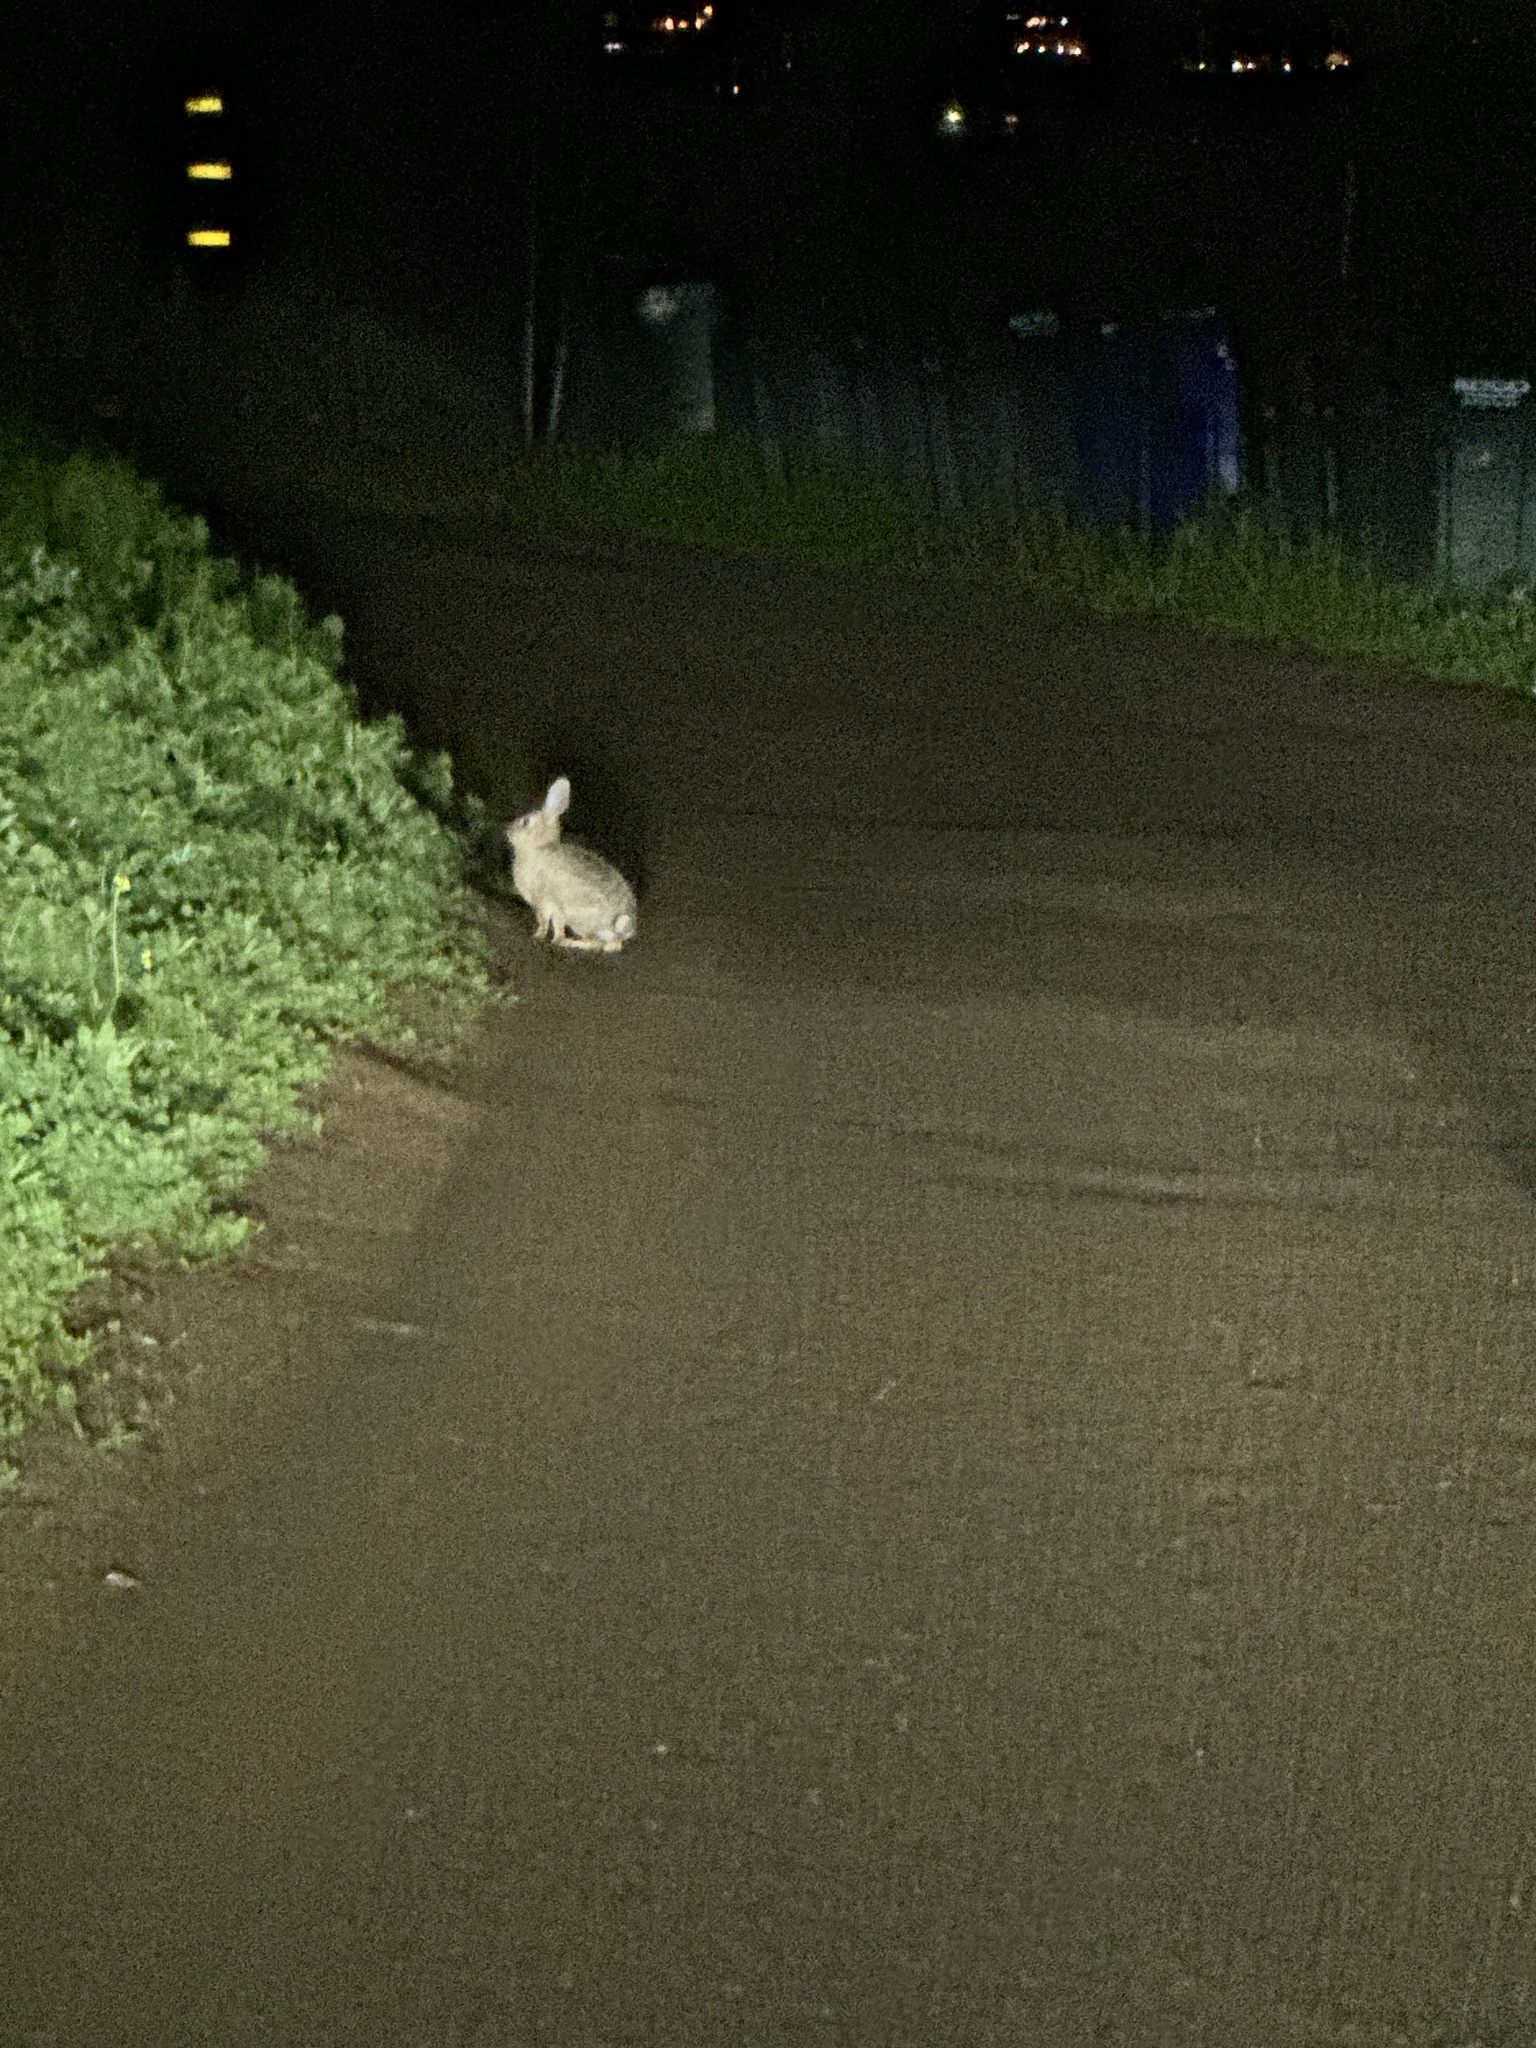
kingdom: Animalia
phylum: Chordata
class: Mammalia
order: Lagomorpha
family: Leporidae
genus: Sylvilagus
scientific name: Sylvilagus audubonii
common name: Desert cottontail
